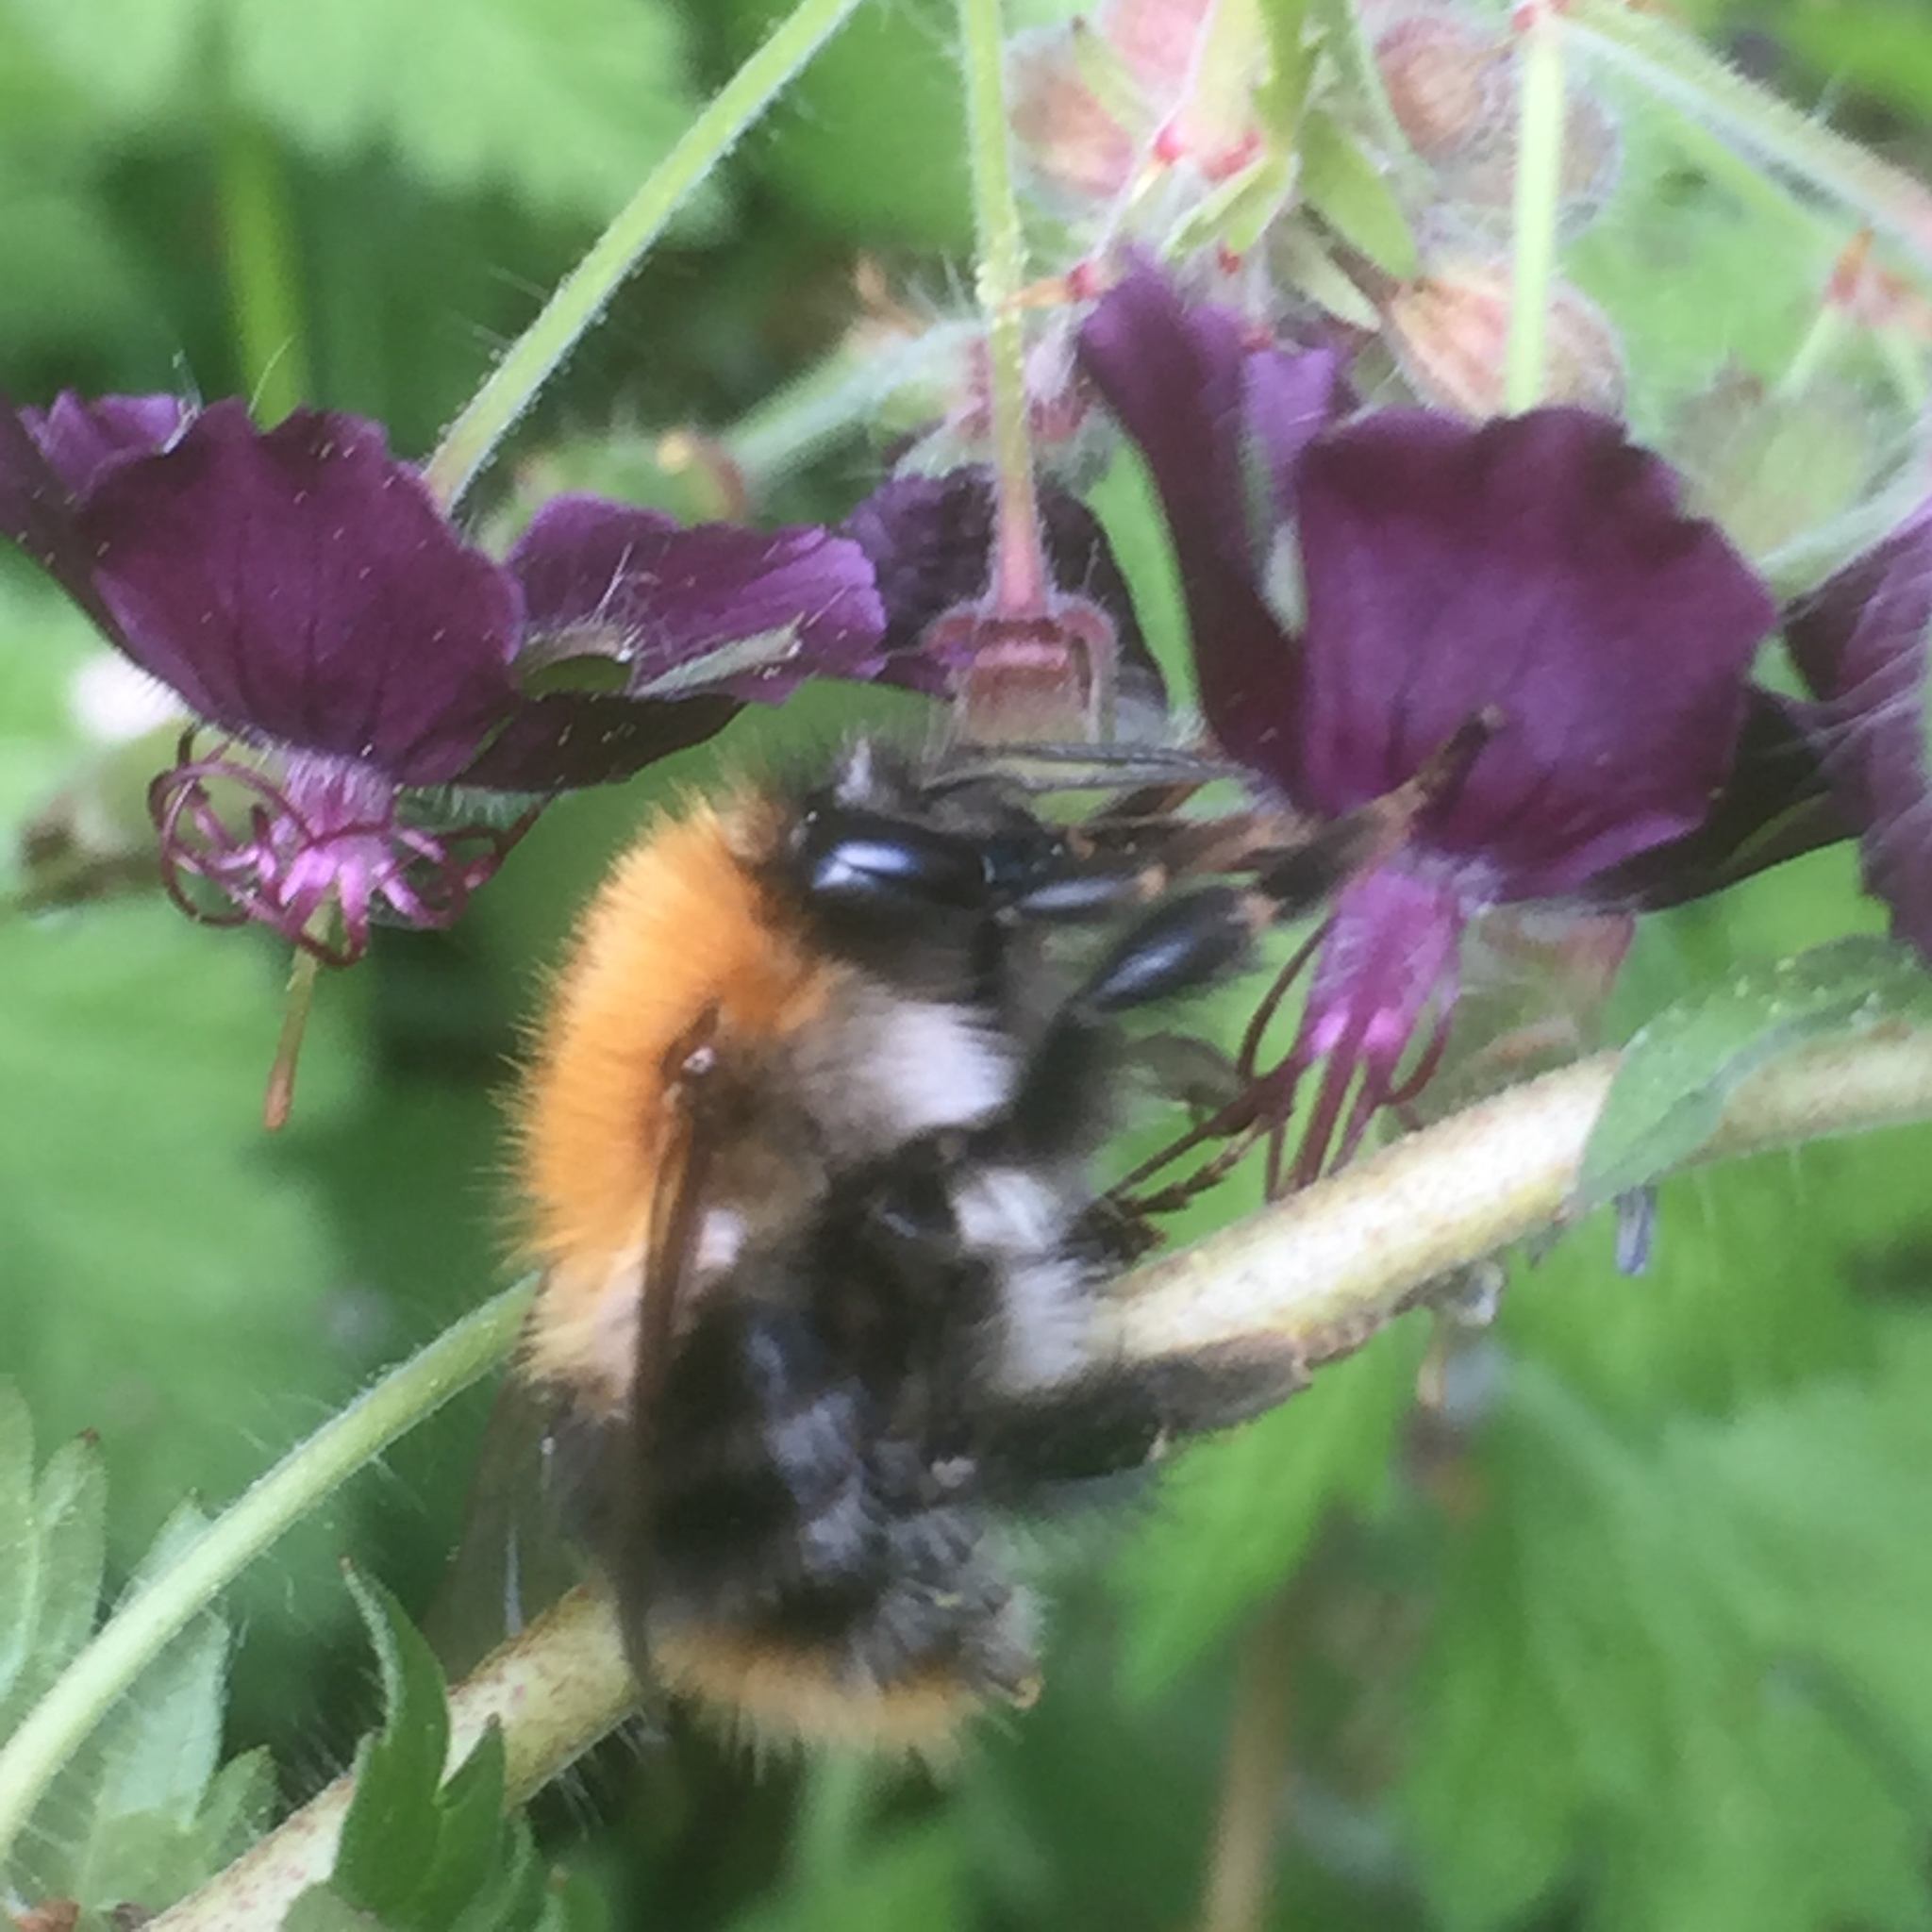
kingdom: Plantae
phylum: Tracheophyta
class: Magnoliopsida
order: Geraniales
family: Geraniaceae
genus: Geranium
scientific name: Geranium phaeum
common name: Dusky crane's-bill
